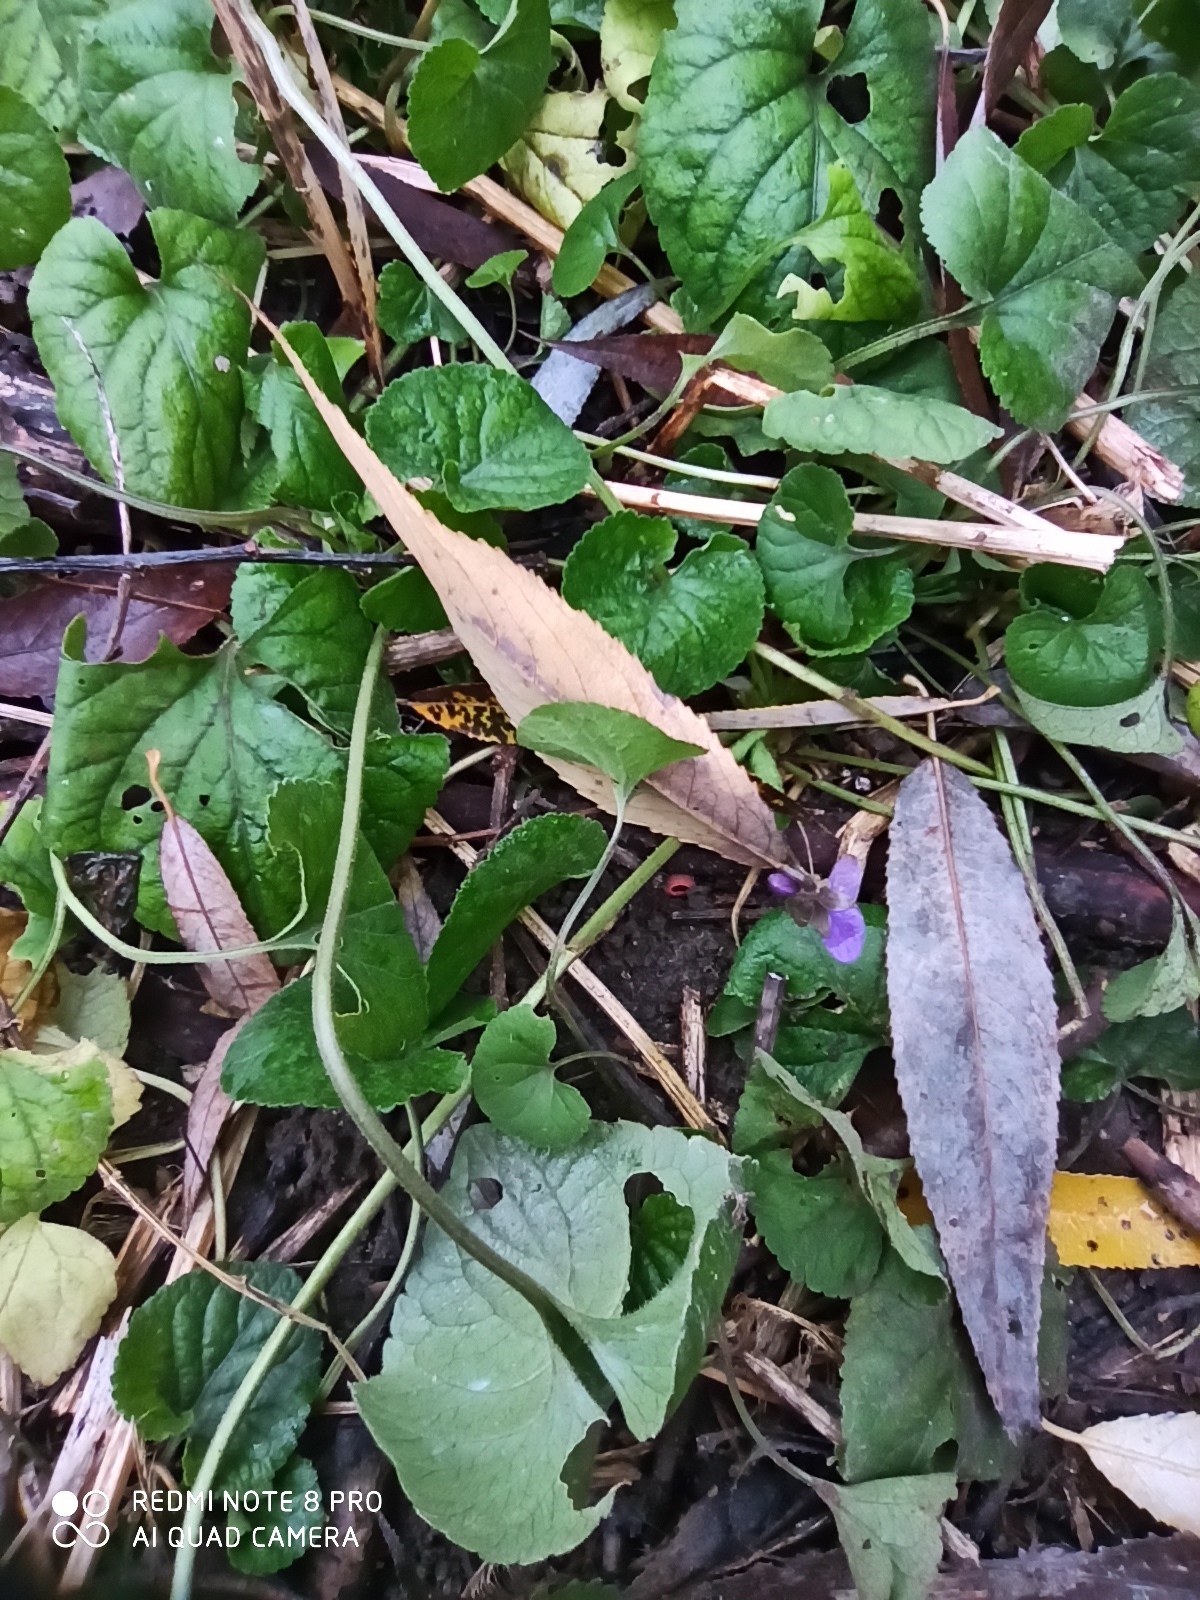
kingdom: Plantae
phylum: Tracheophyta
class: Magnoliopsida
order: Malpighiales
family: Violaceae
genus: Viola
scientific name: Viola odorata
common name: Sweet violet
